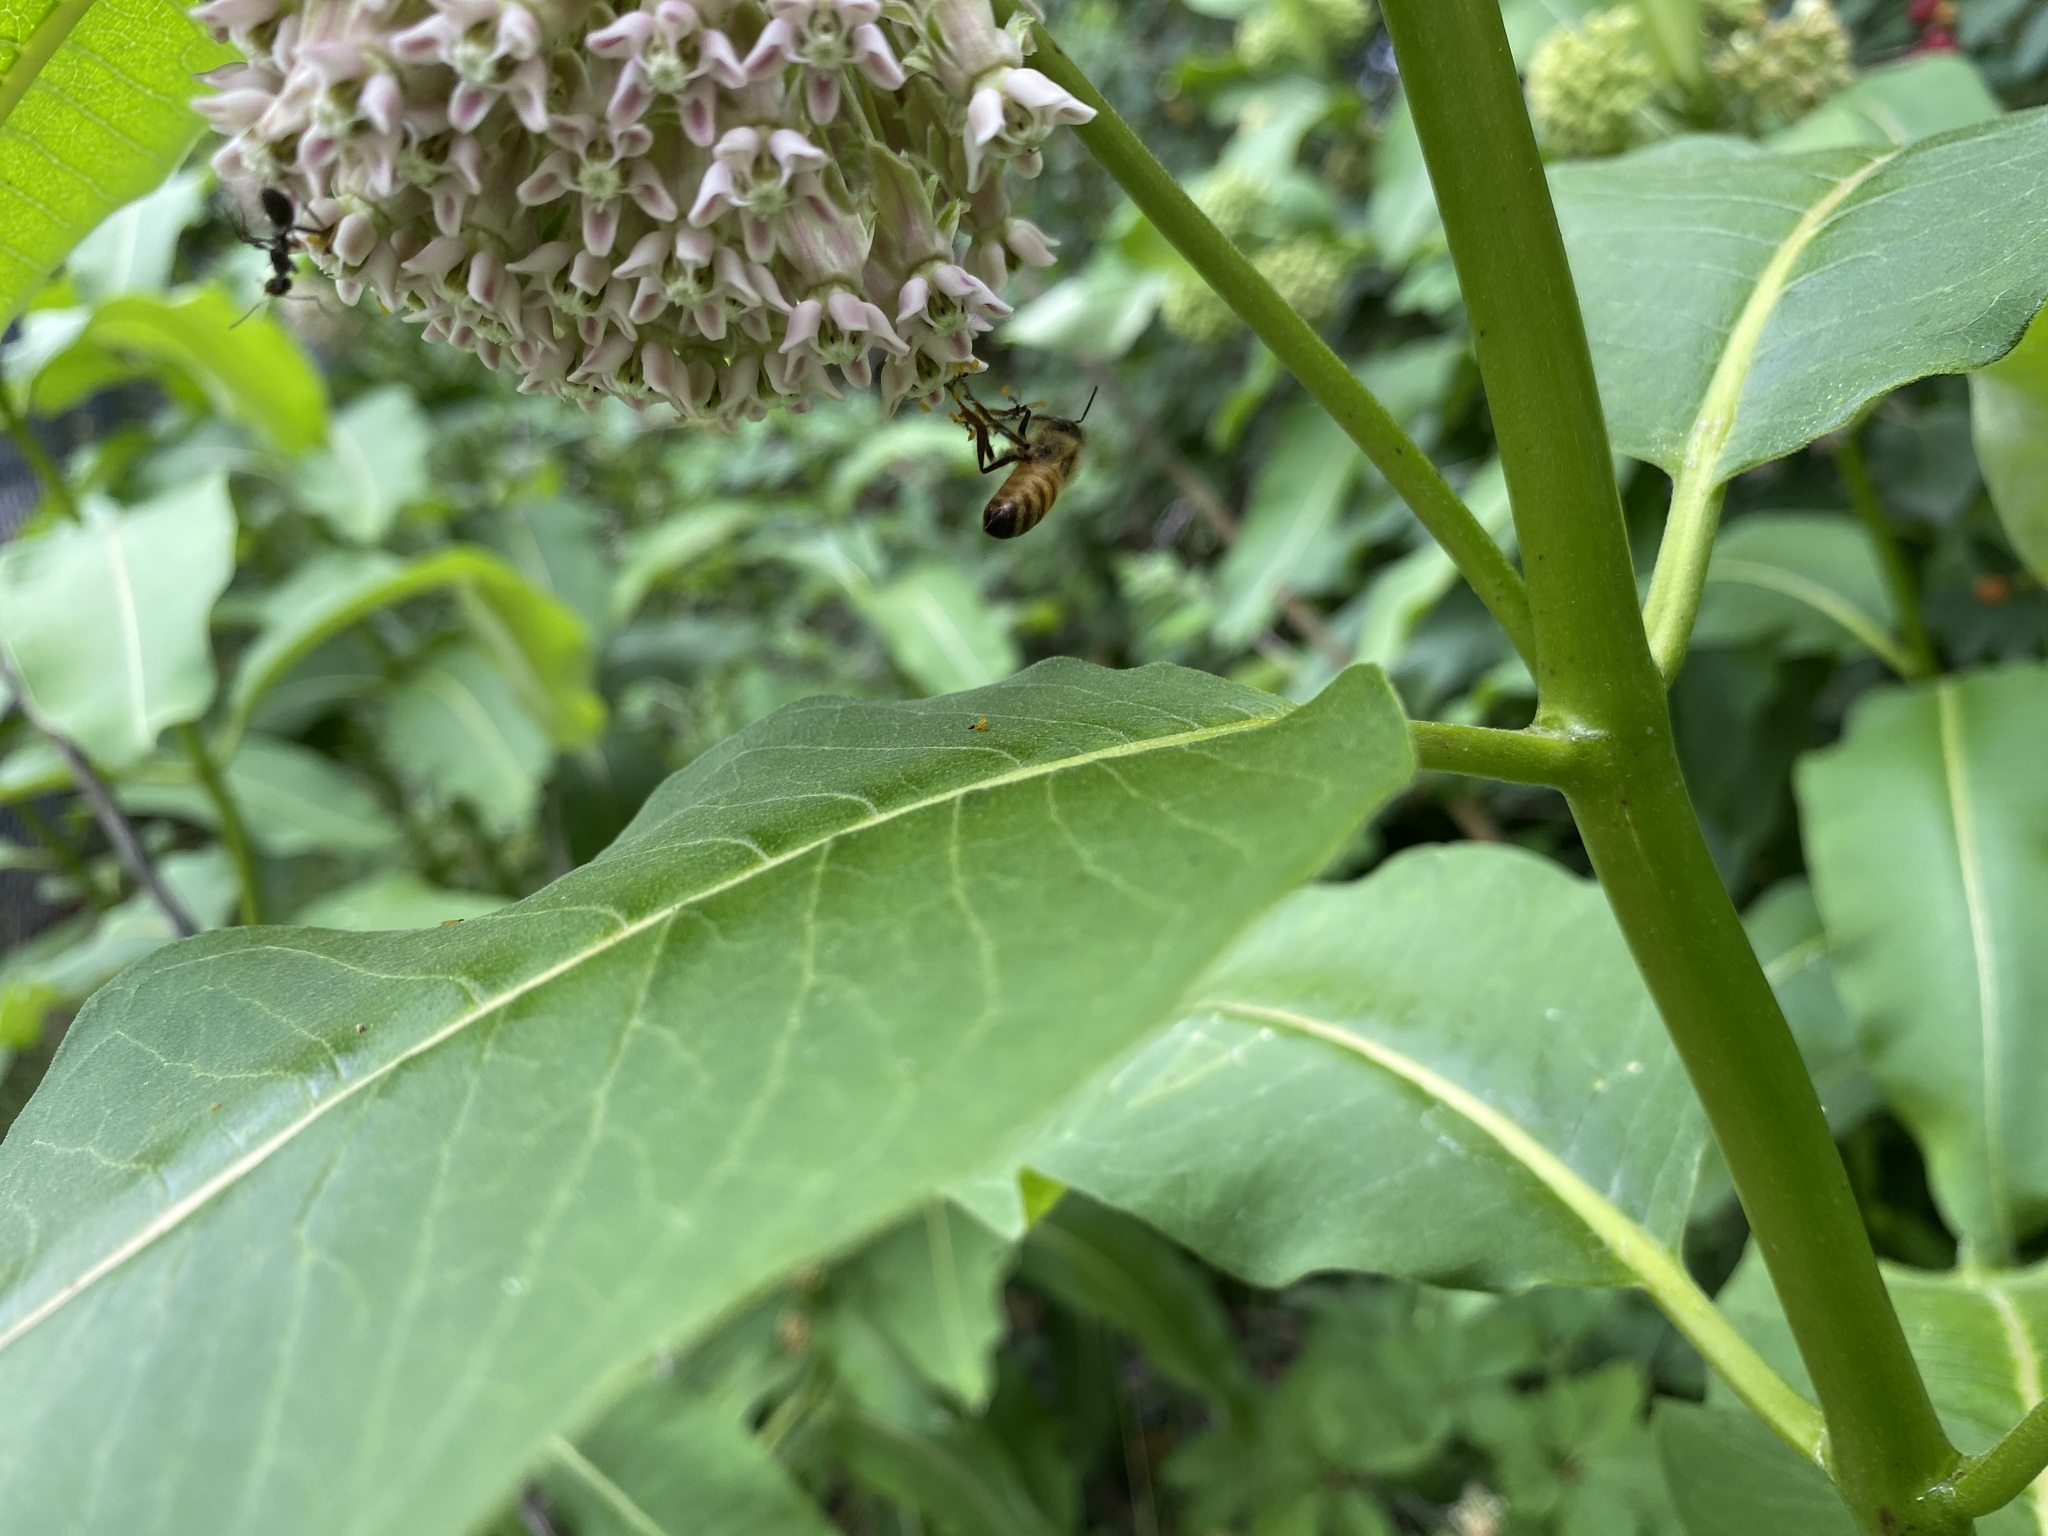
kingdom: Animalia
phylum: Arthropoda
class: Insecta
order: Hymenoptera
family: Apidae
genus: Apis
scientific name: Apis mellifera
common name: Honey bee
